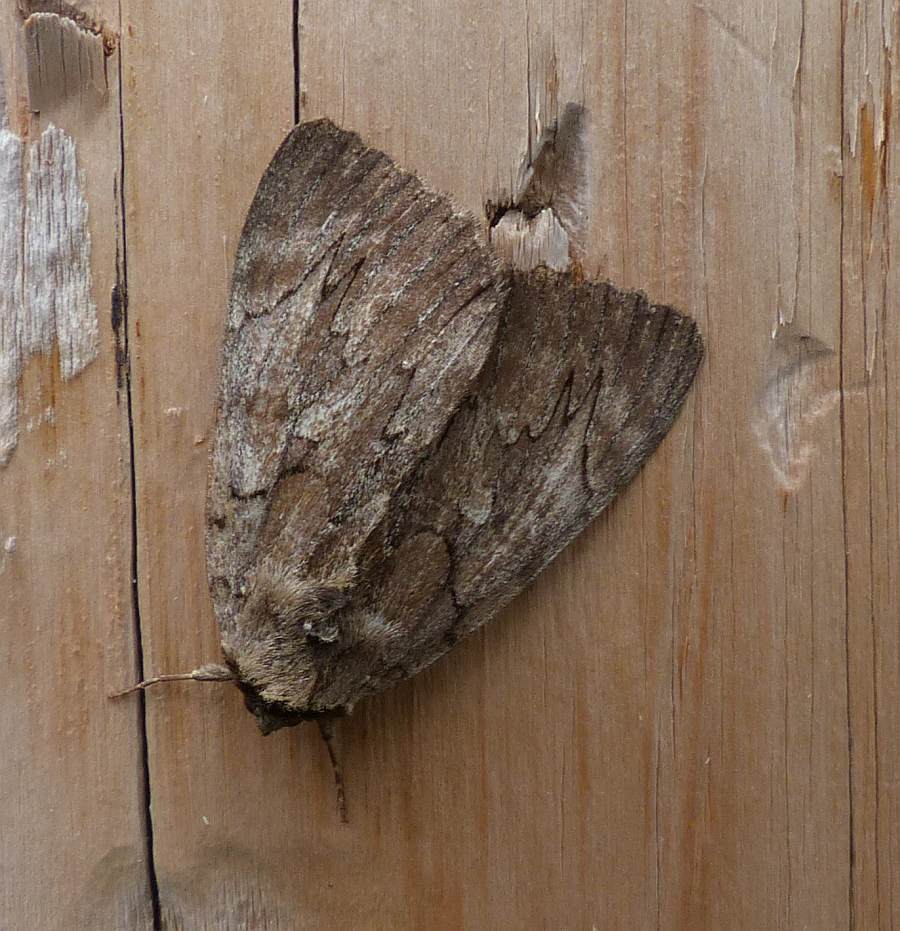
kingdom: Animalia
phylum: Arthropoda
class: Insecta
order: Lepidoptera
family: Erebidae
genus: Catocala
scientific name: Catocala cara
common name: Darling underwing
